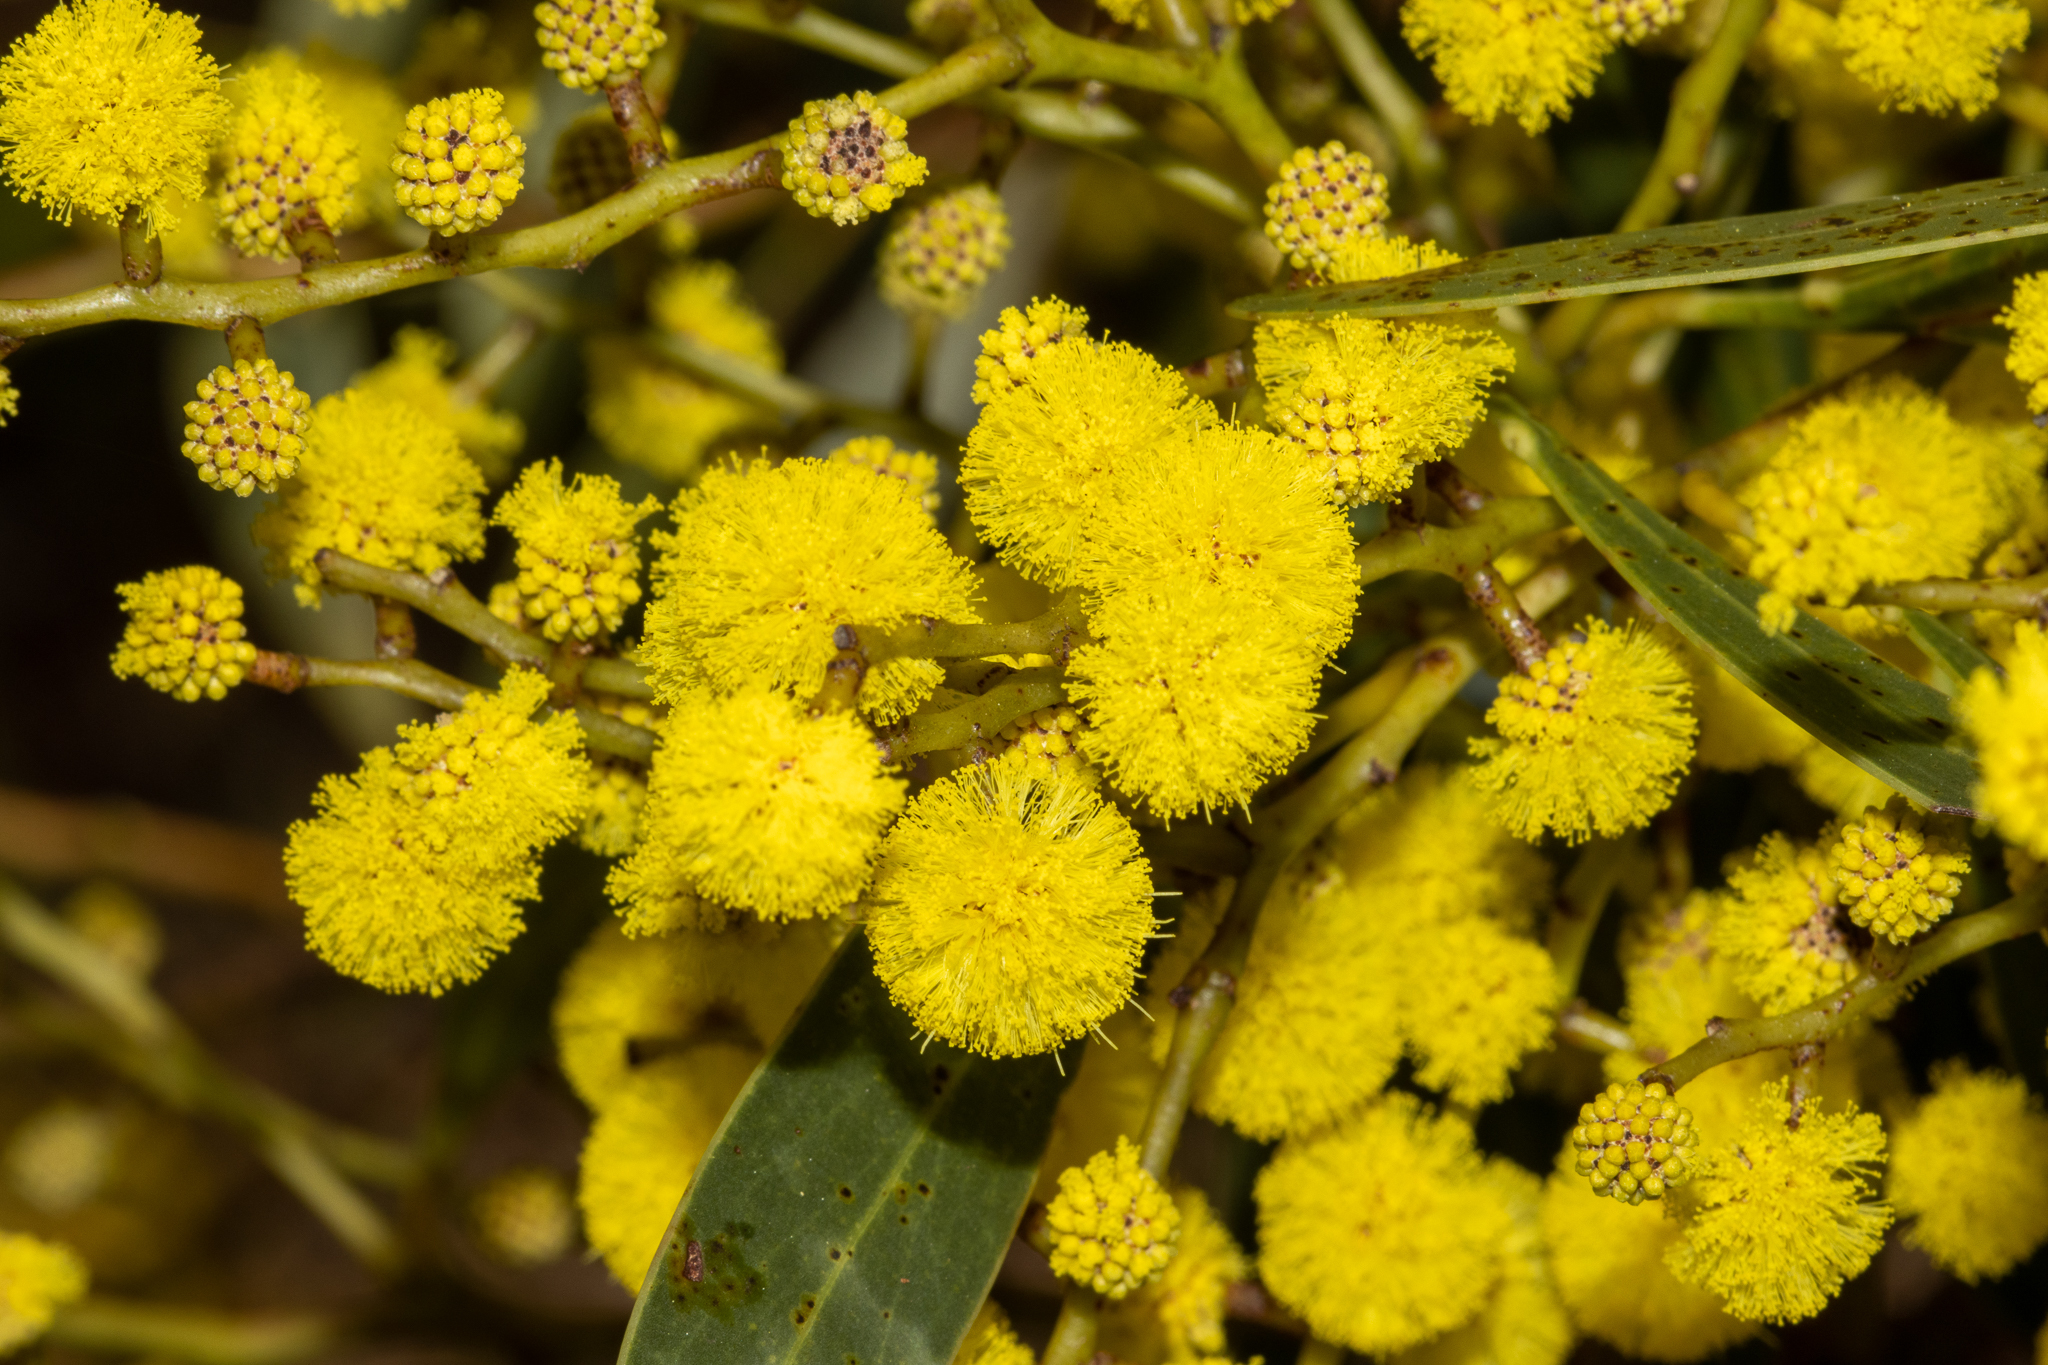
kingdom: Plantae
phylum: Tracheophyta
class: Magnoliopsida
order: Fabales
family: Fabaceae
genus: Acacia
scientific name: Acacia pycnantha
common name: Golden wattle
